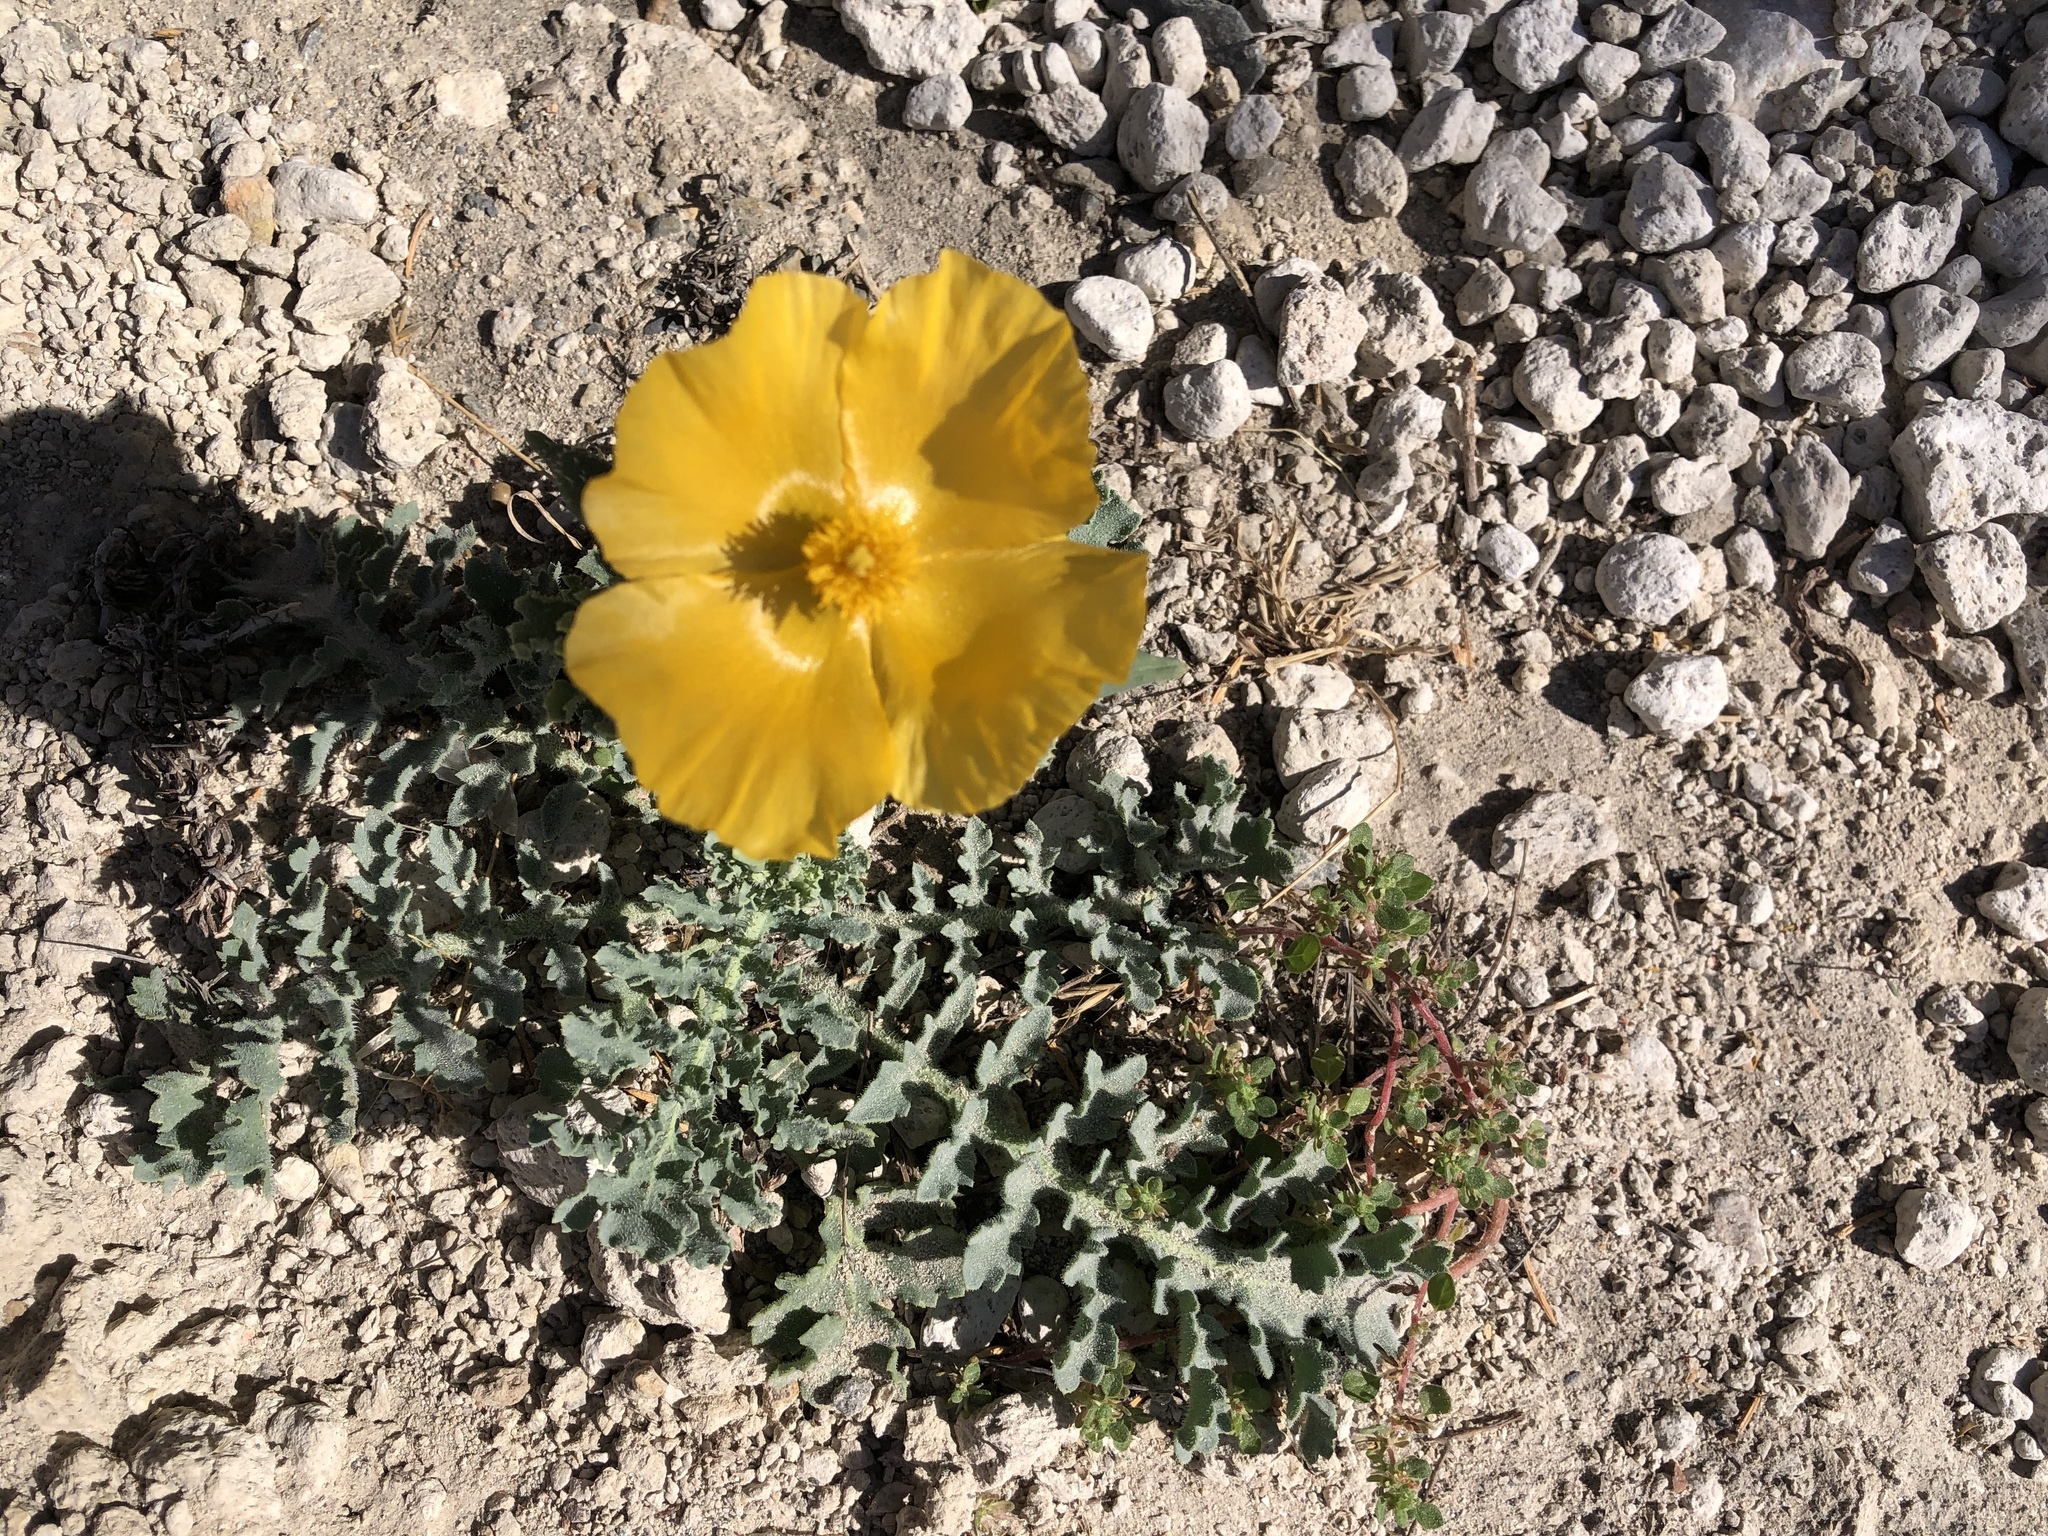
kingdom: Plantae
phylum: Tracheophyta
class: Magnoliopsida
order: Ranunculales
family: Papaveraceae
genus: Glaucium
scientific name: Glaucium flavum
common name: Yellow horned-poppy
